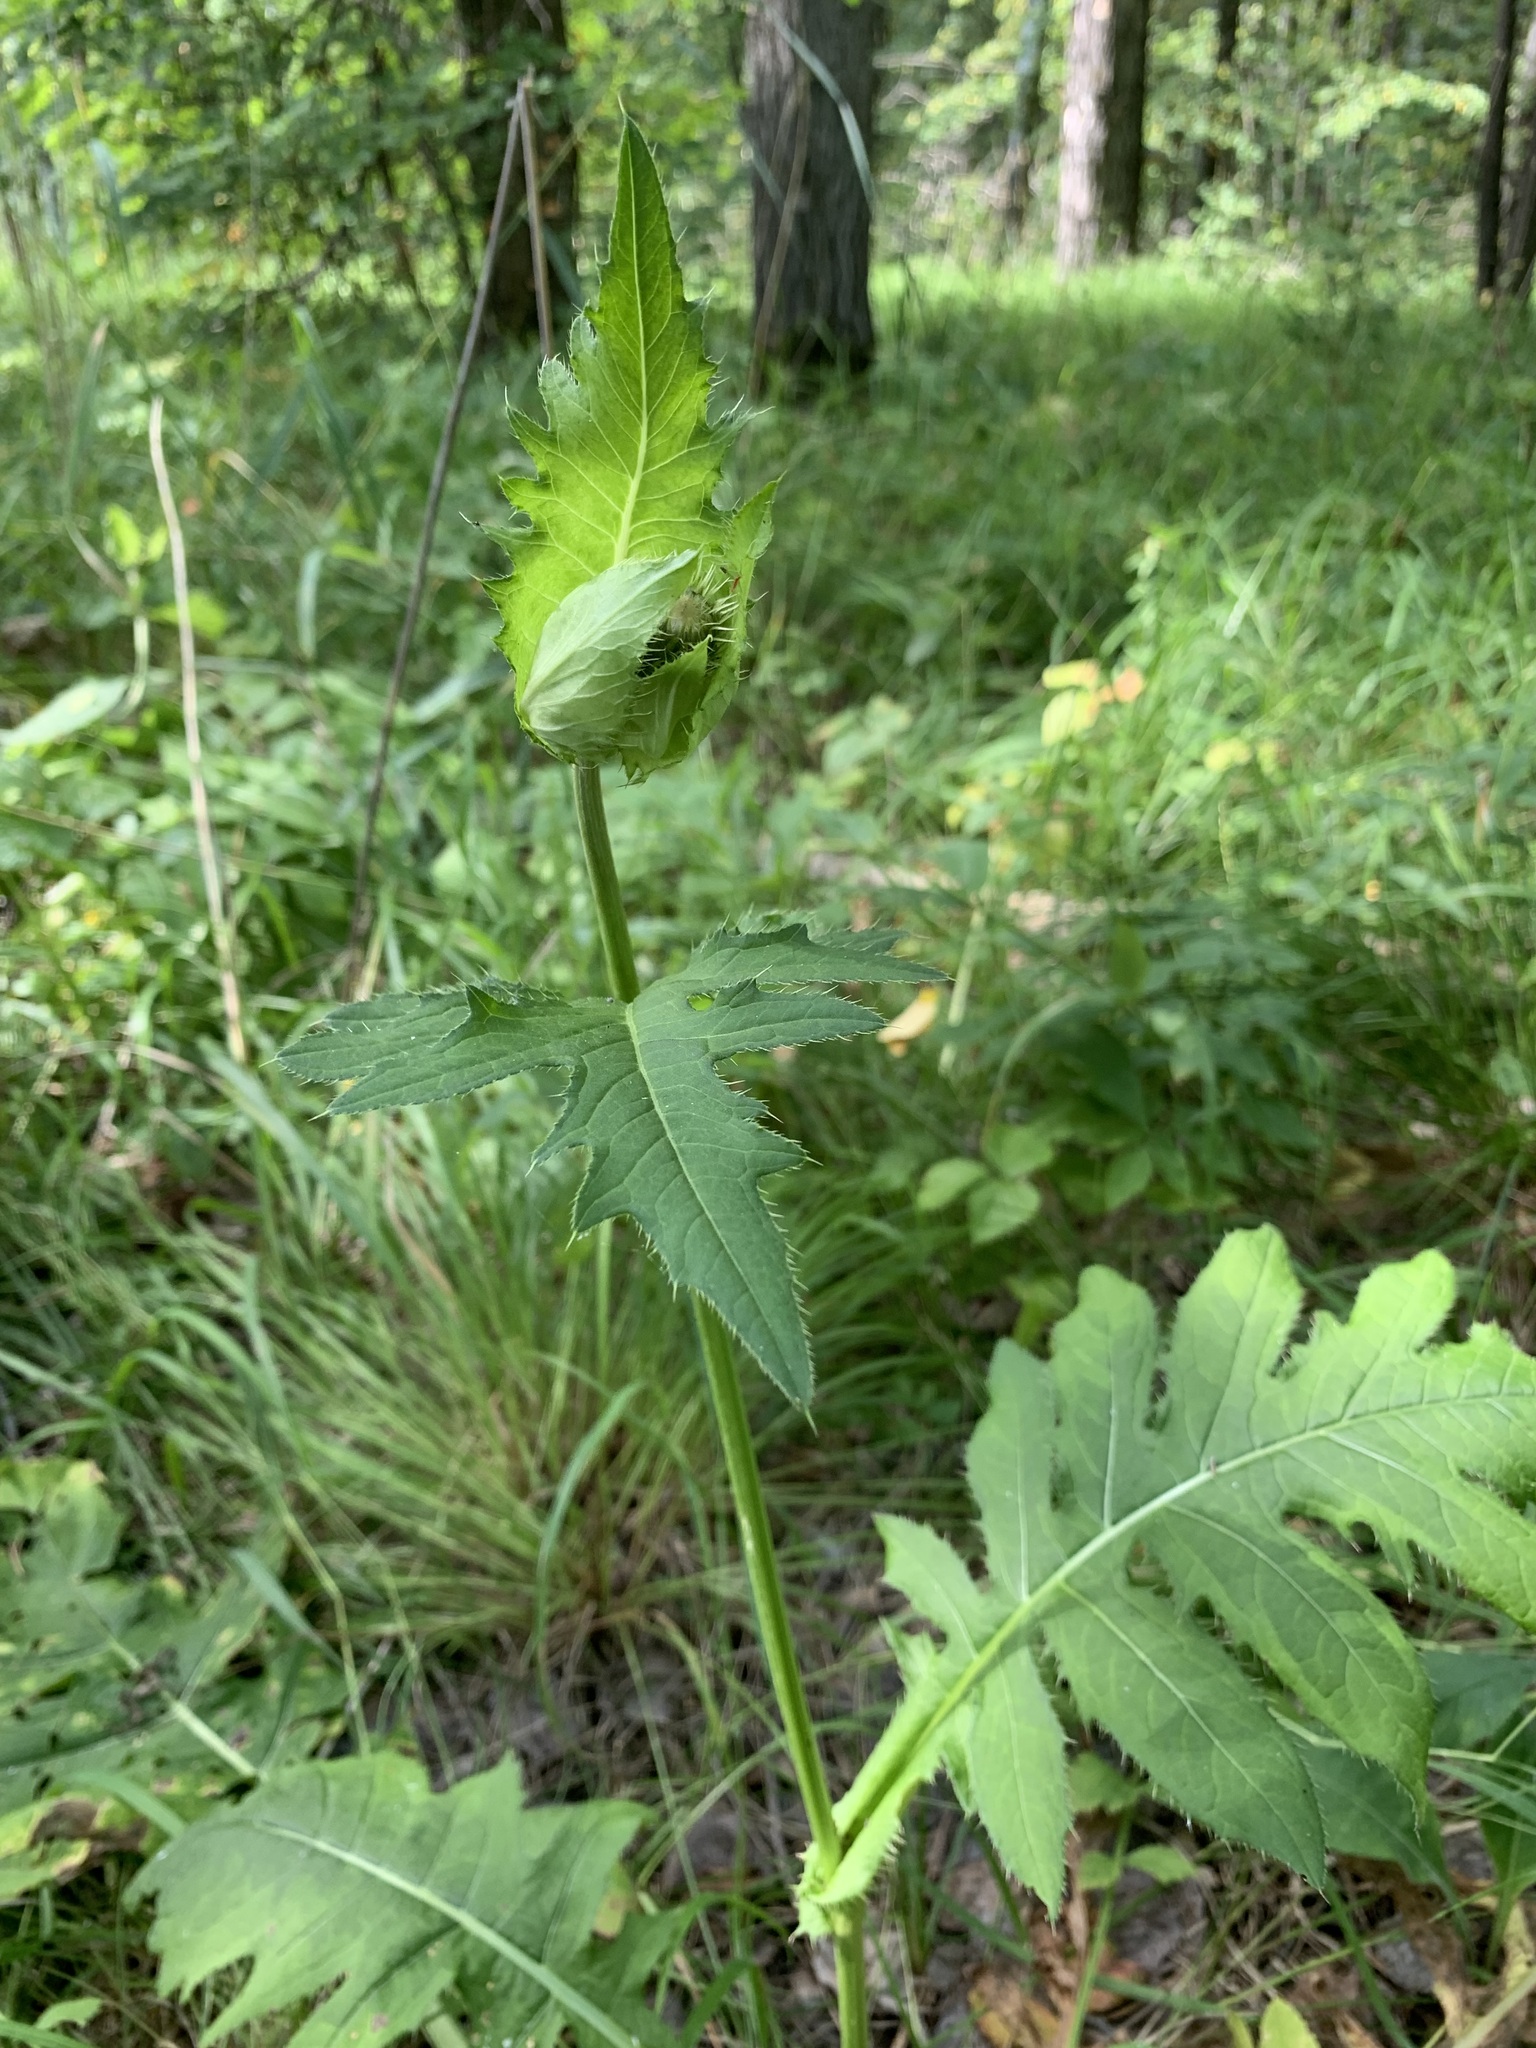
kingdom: Plantae
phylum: Tracheophyta
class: Magnoliopsida
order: Asterales
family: Asteraceae
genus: Cirsium
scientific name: Cirsium oleraceum
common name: Cabbage thistle
